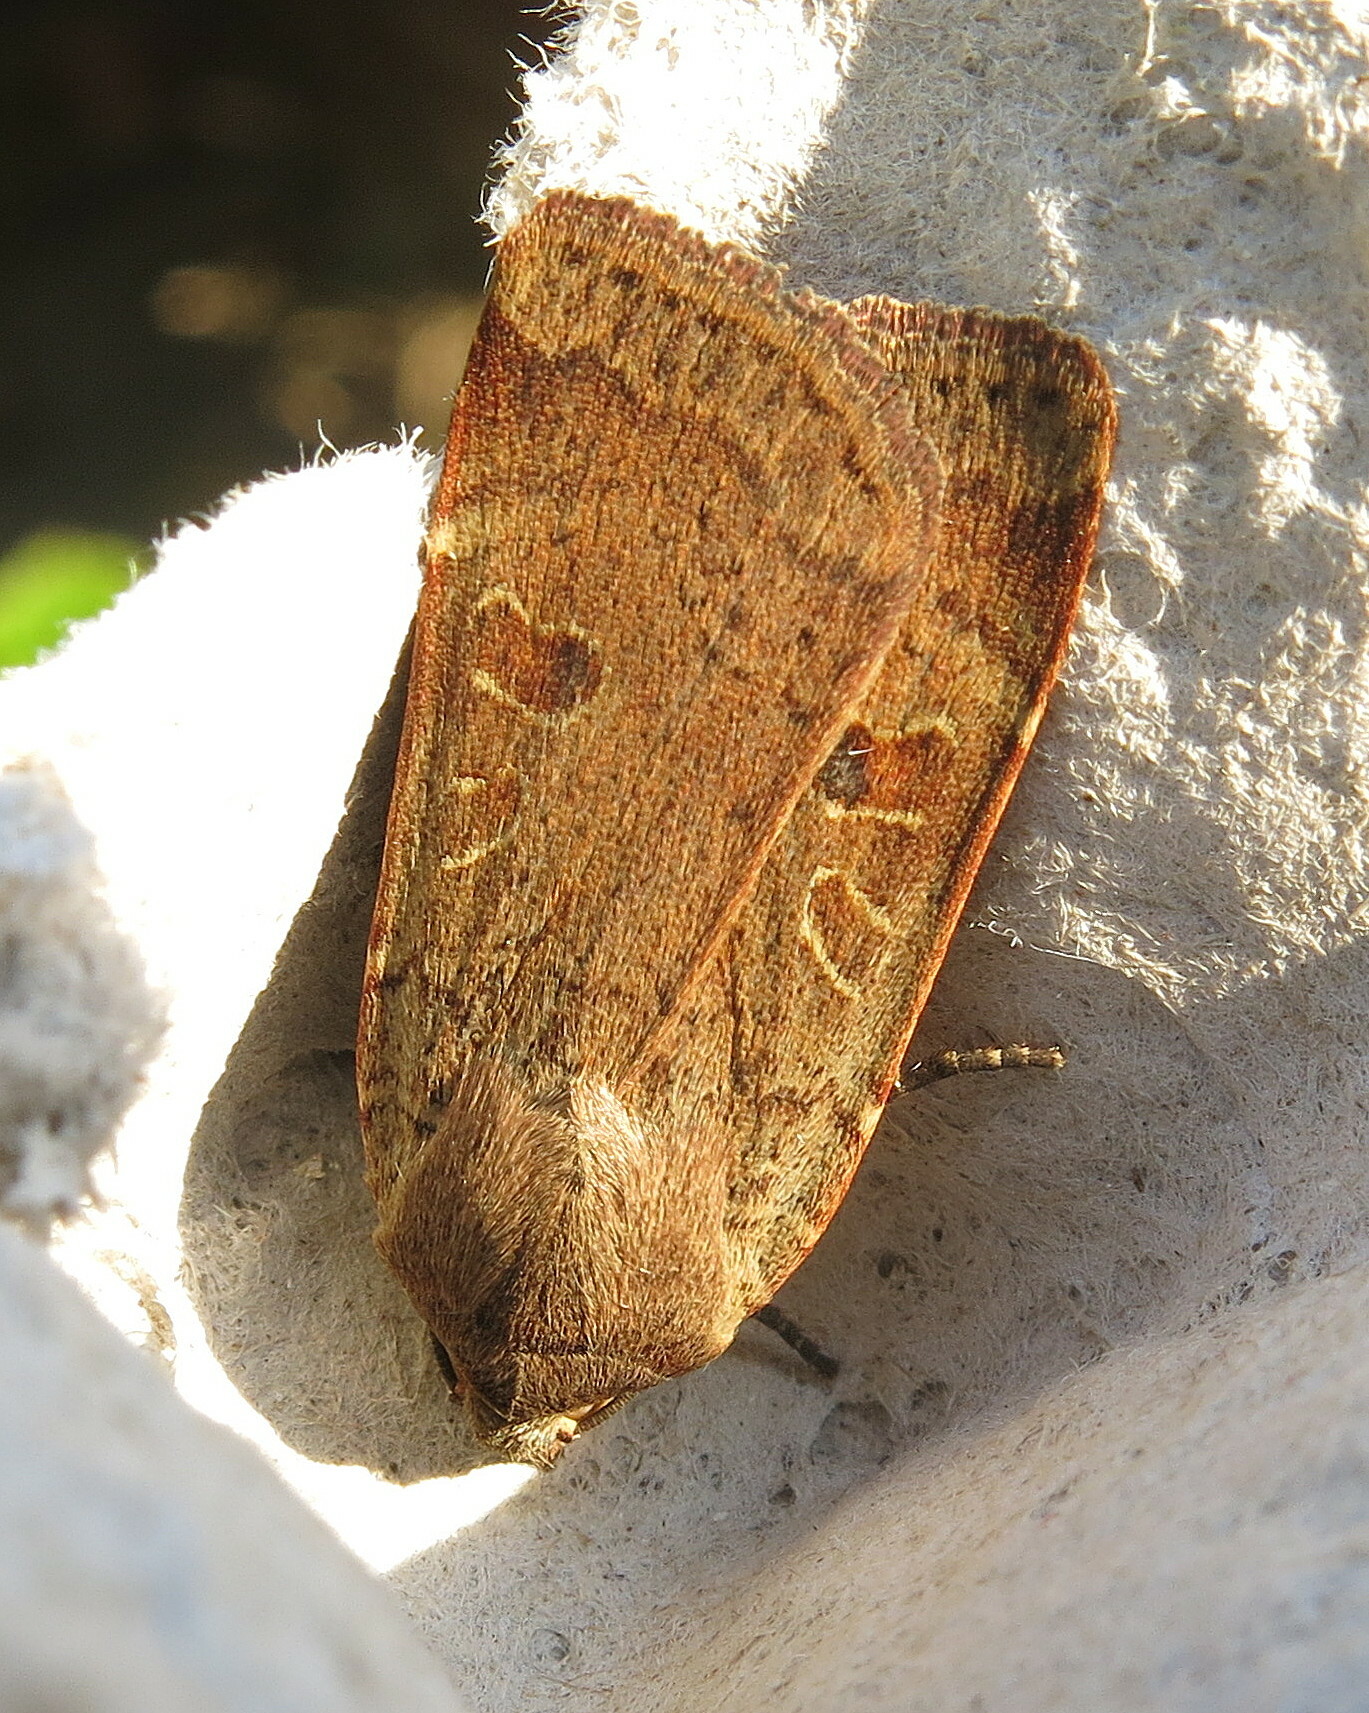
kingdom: Animalia
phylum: Arthropoda
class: Insecta
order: Lepidoptera
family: Noctuidae
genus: Noctua
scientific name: Noctua comes
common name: Lesser yellow underwing
